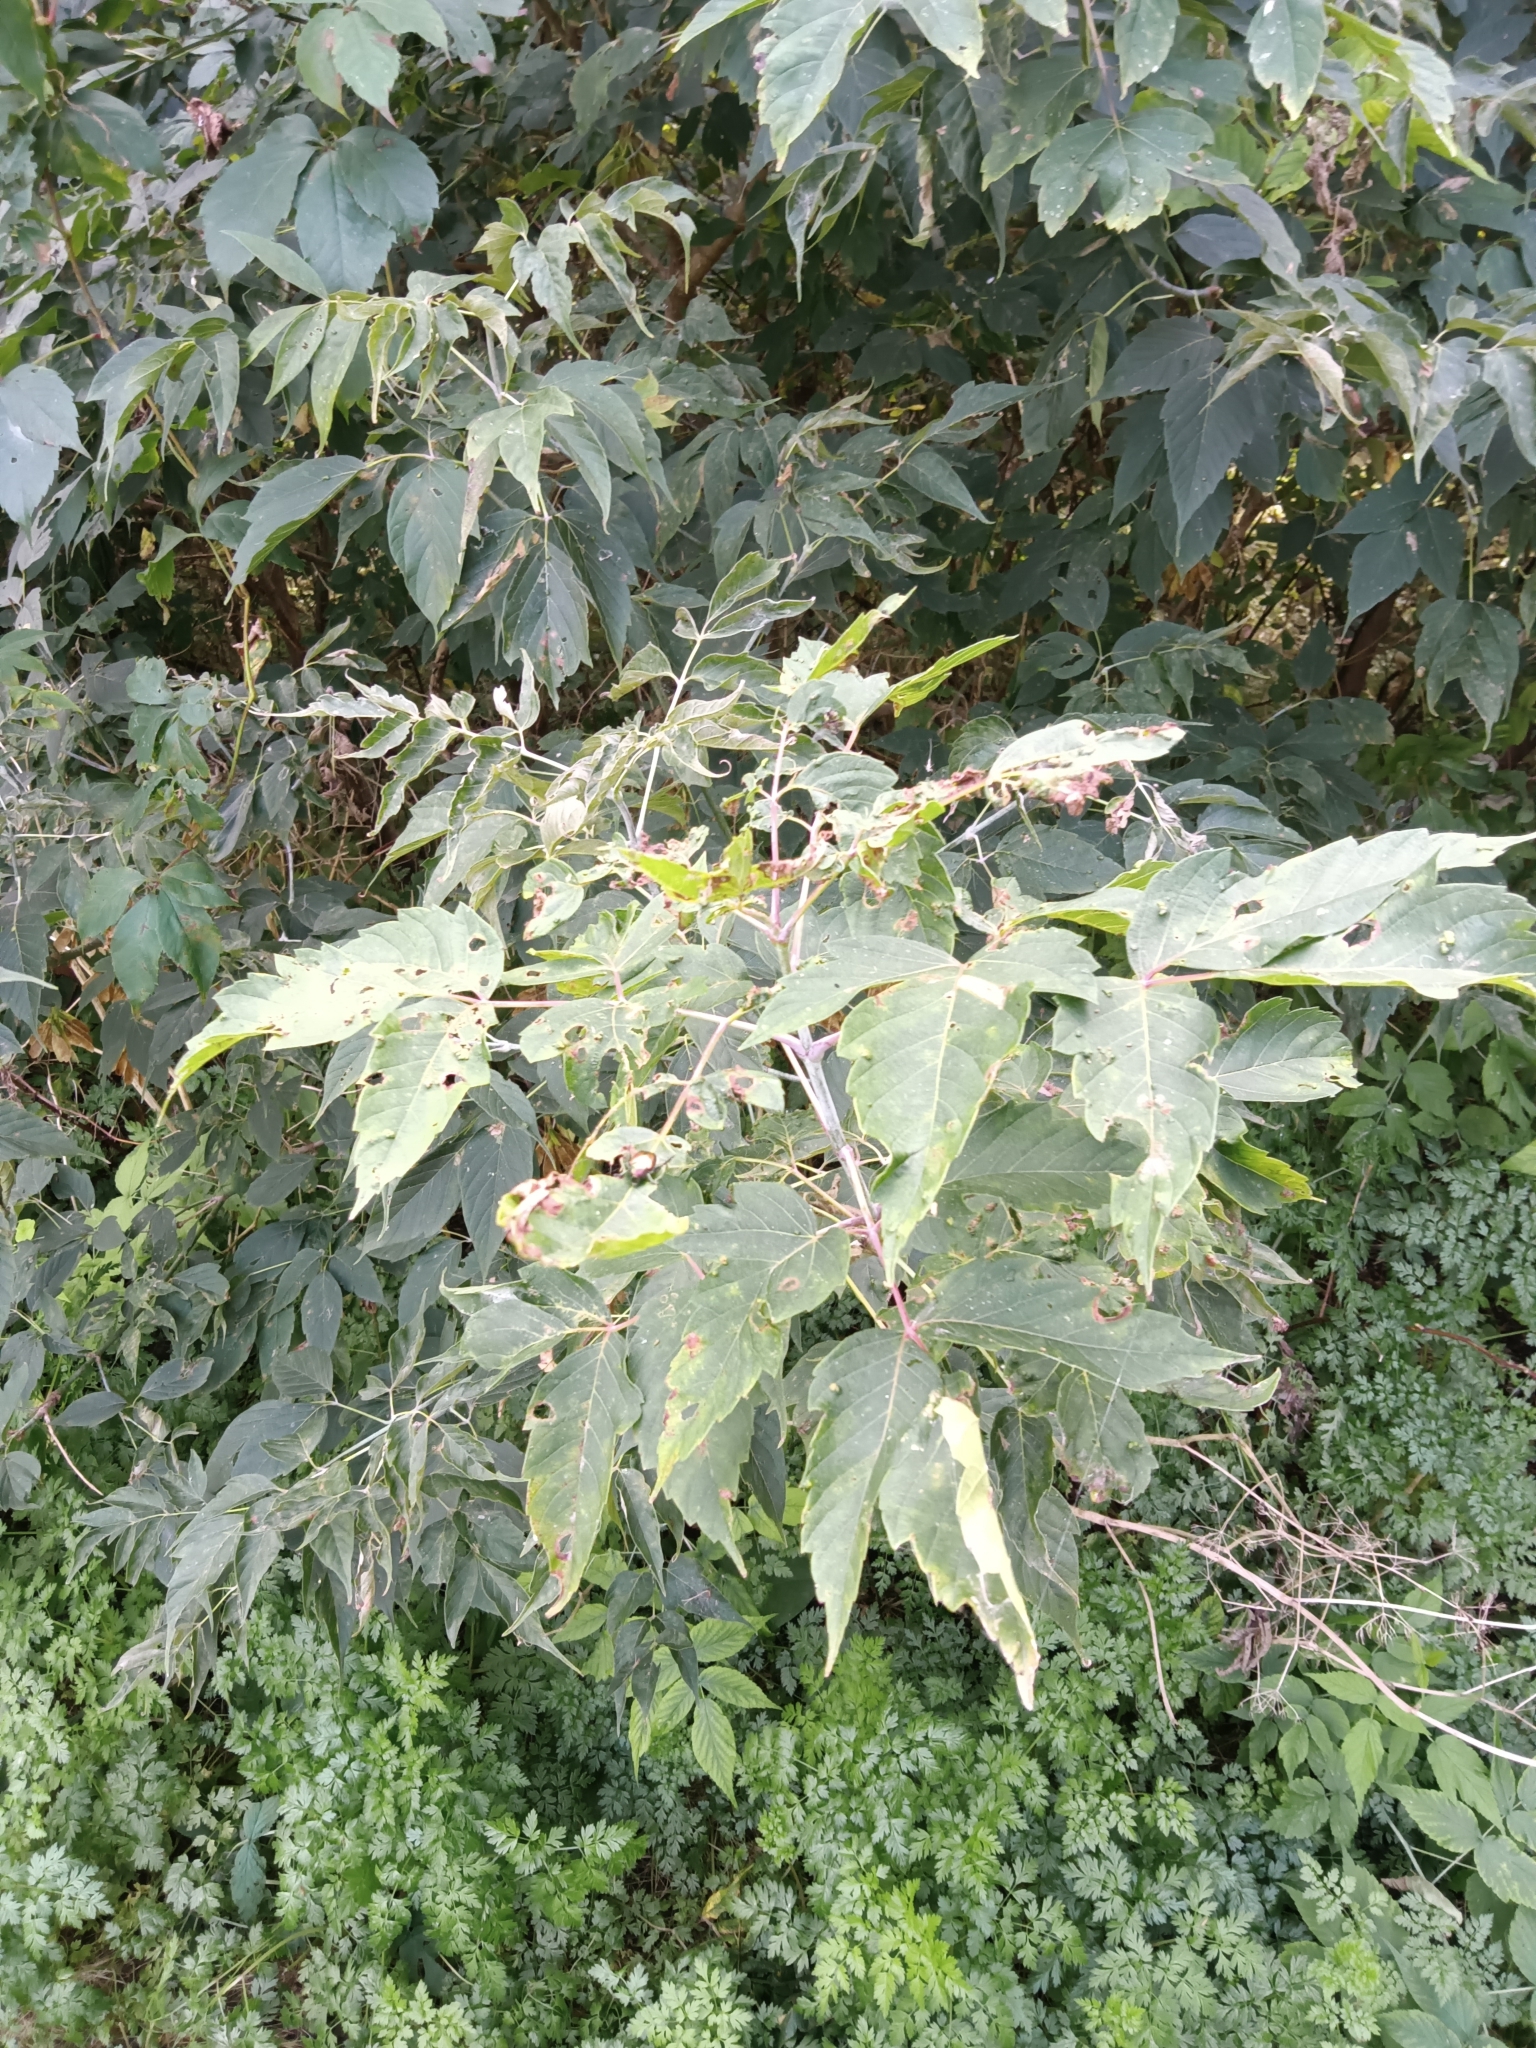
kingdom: Plantae
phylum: Tracheophyta
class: Magnoliopsida
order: Sapindales
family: Sapindaceae
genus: Acer
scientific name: Acer negundo
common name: Ashleaf maple
